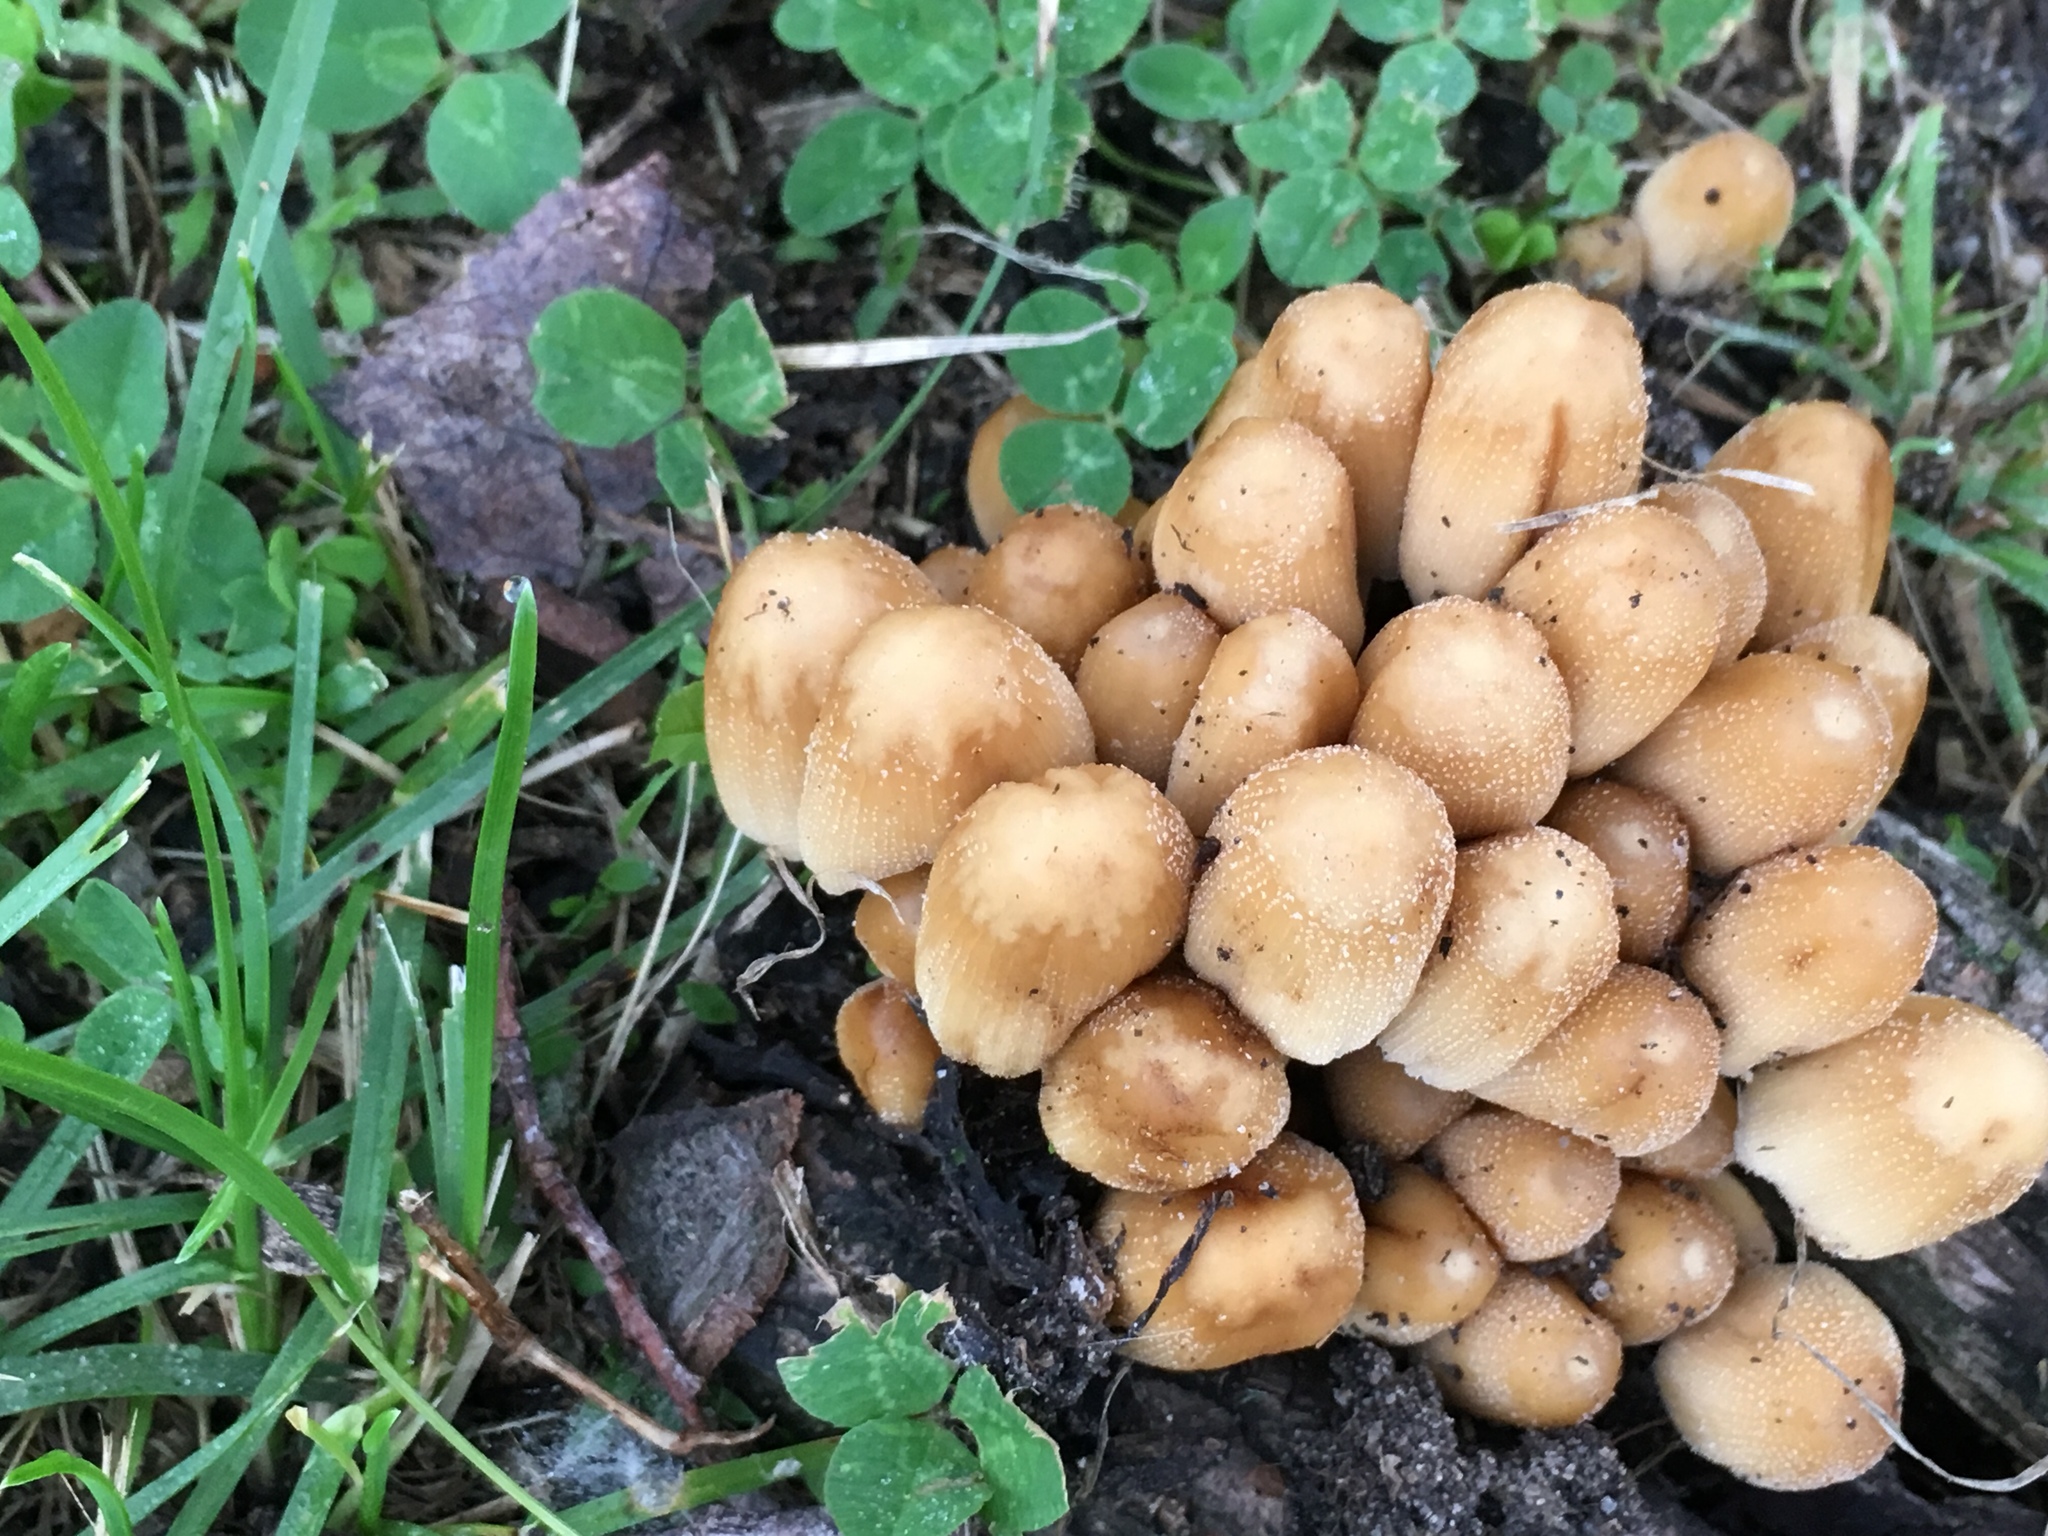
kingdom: Fungi
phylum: Basidiomycota
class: Agaricomycetes
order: Agaricales
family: Psathyrellaceae
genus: Coprinellus
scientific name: Coprinellus micaceus
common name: Glistening ink-cap
